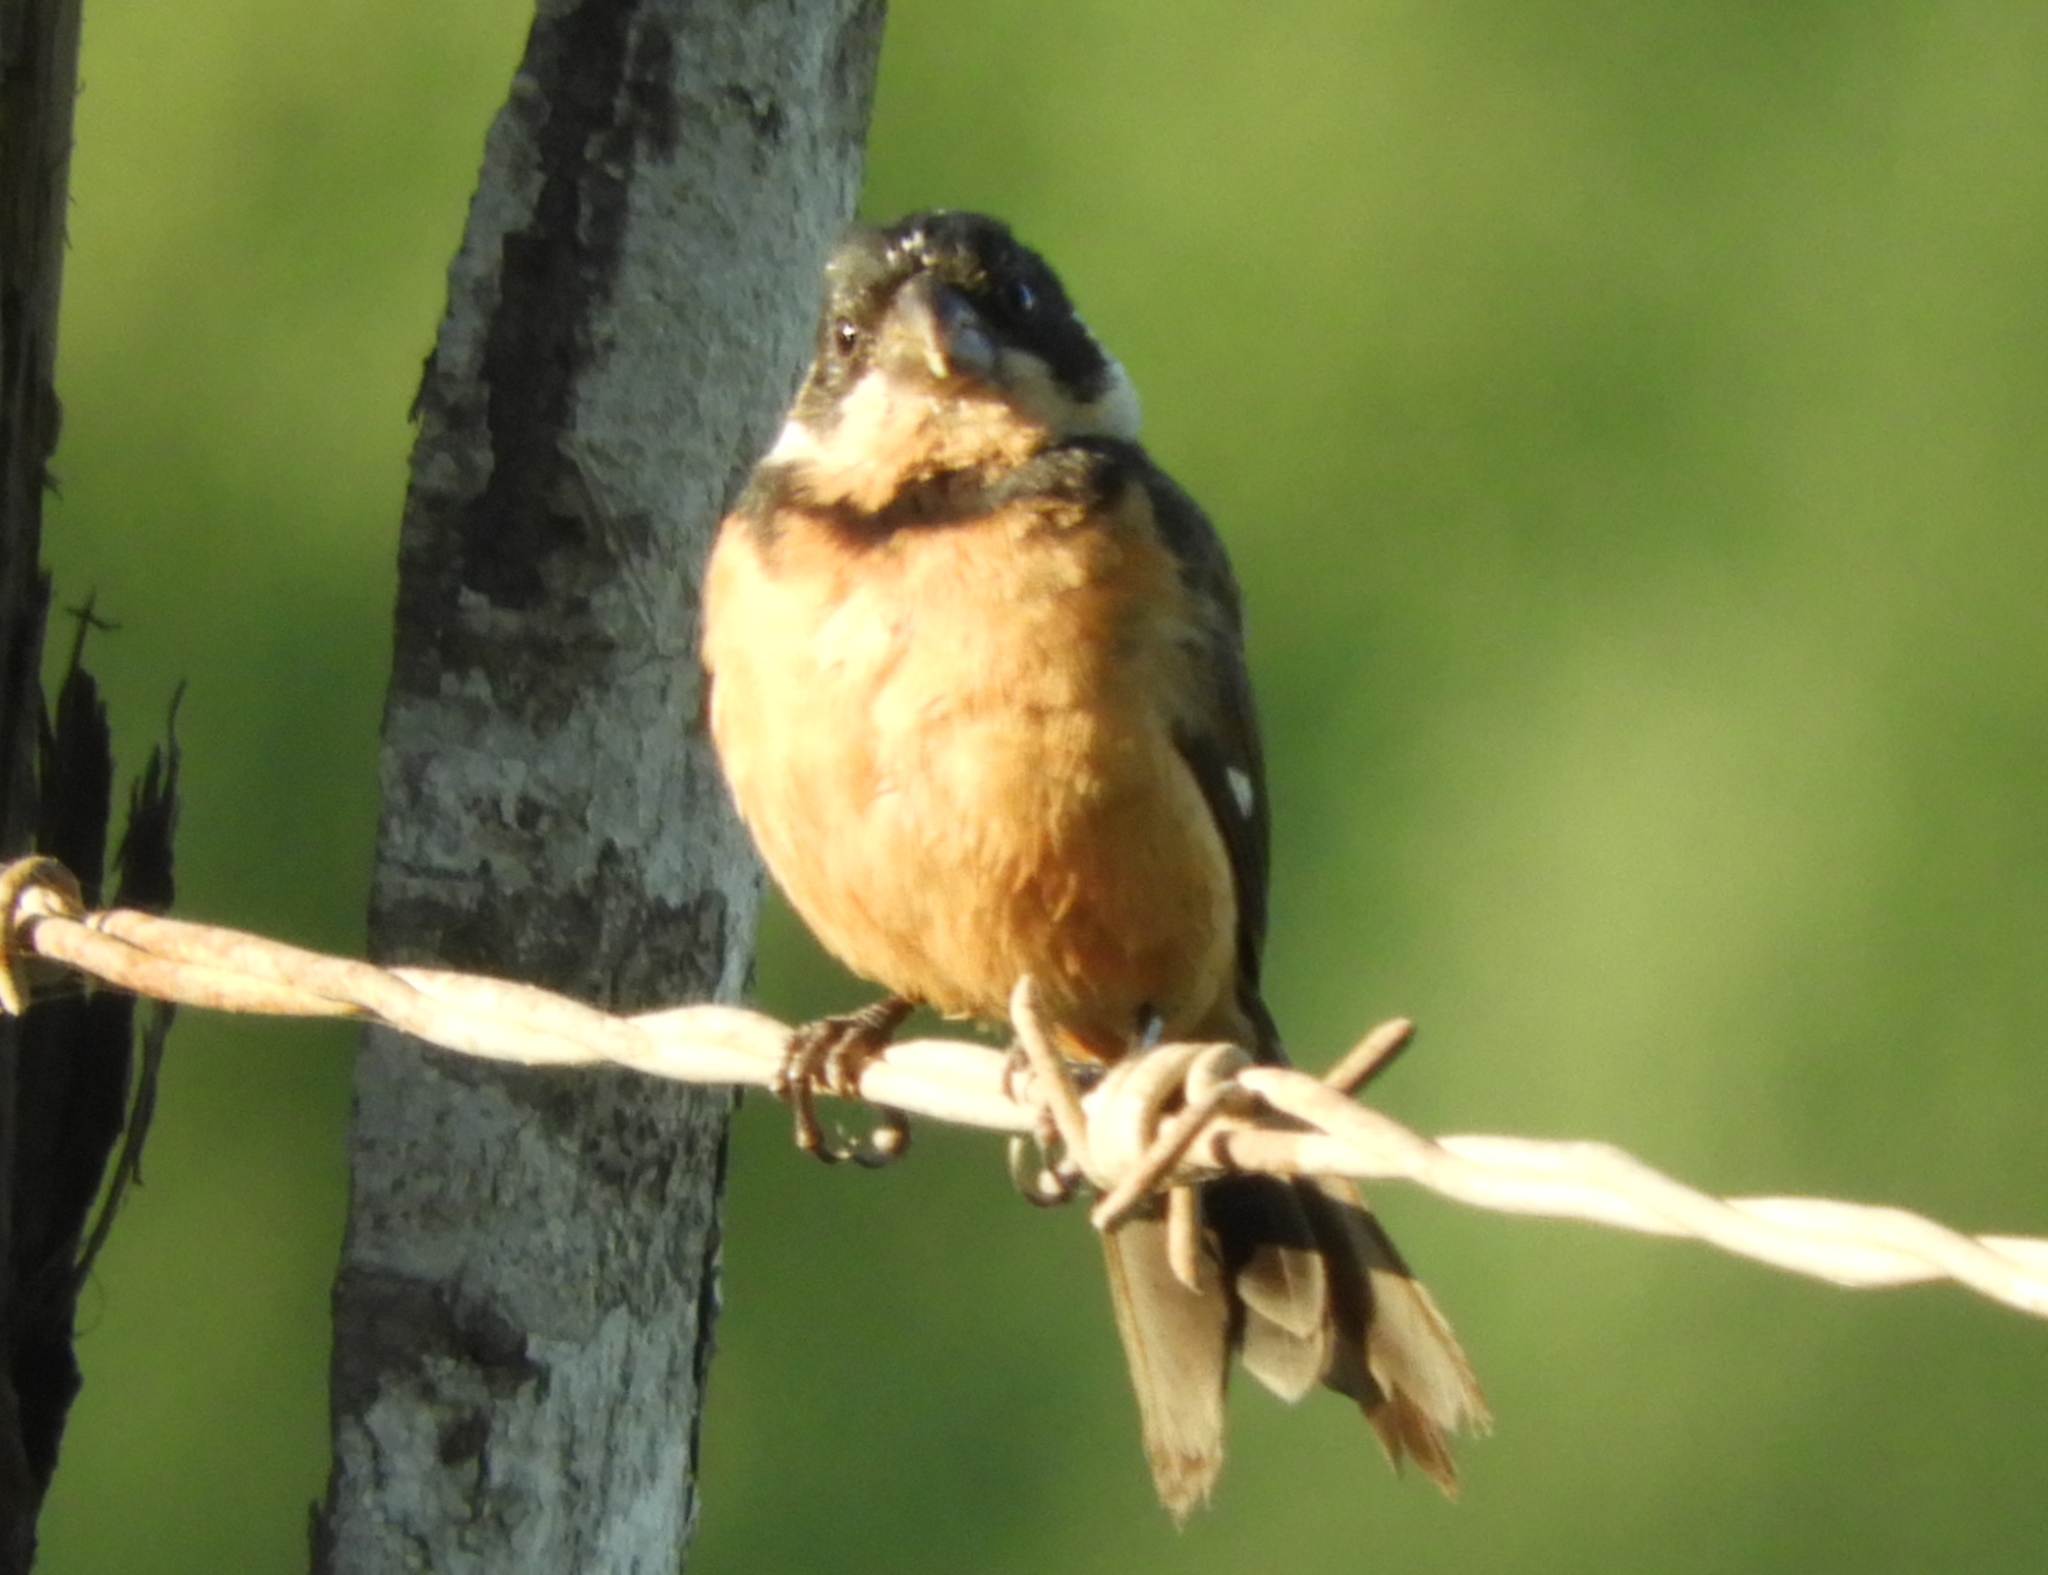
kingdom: Animalia
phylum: Chordata
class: Aves
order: Passeriformes
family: Thraupidae
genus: Sporophila
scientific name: Sporophila torqueola
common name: White-collared seedeater
